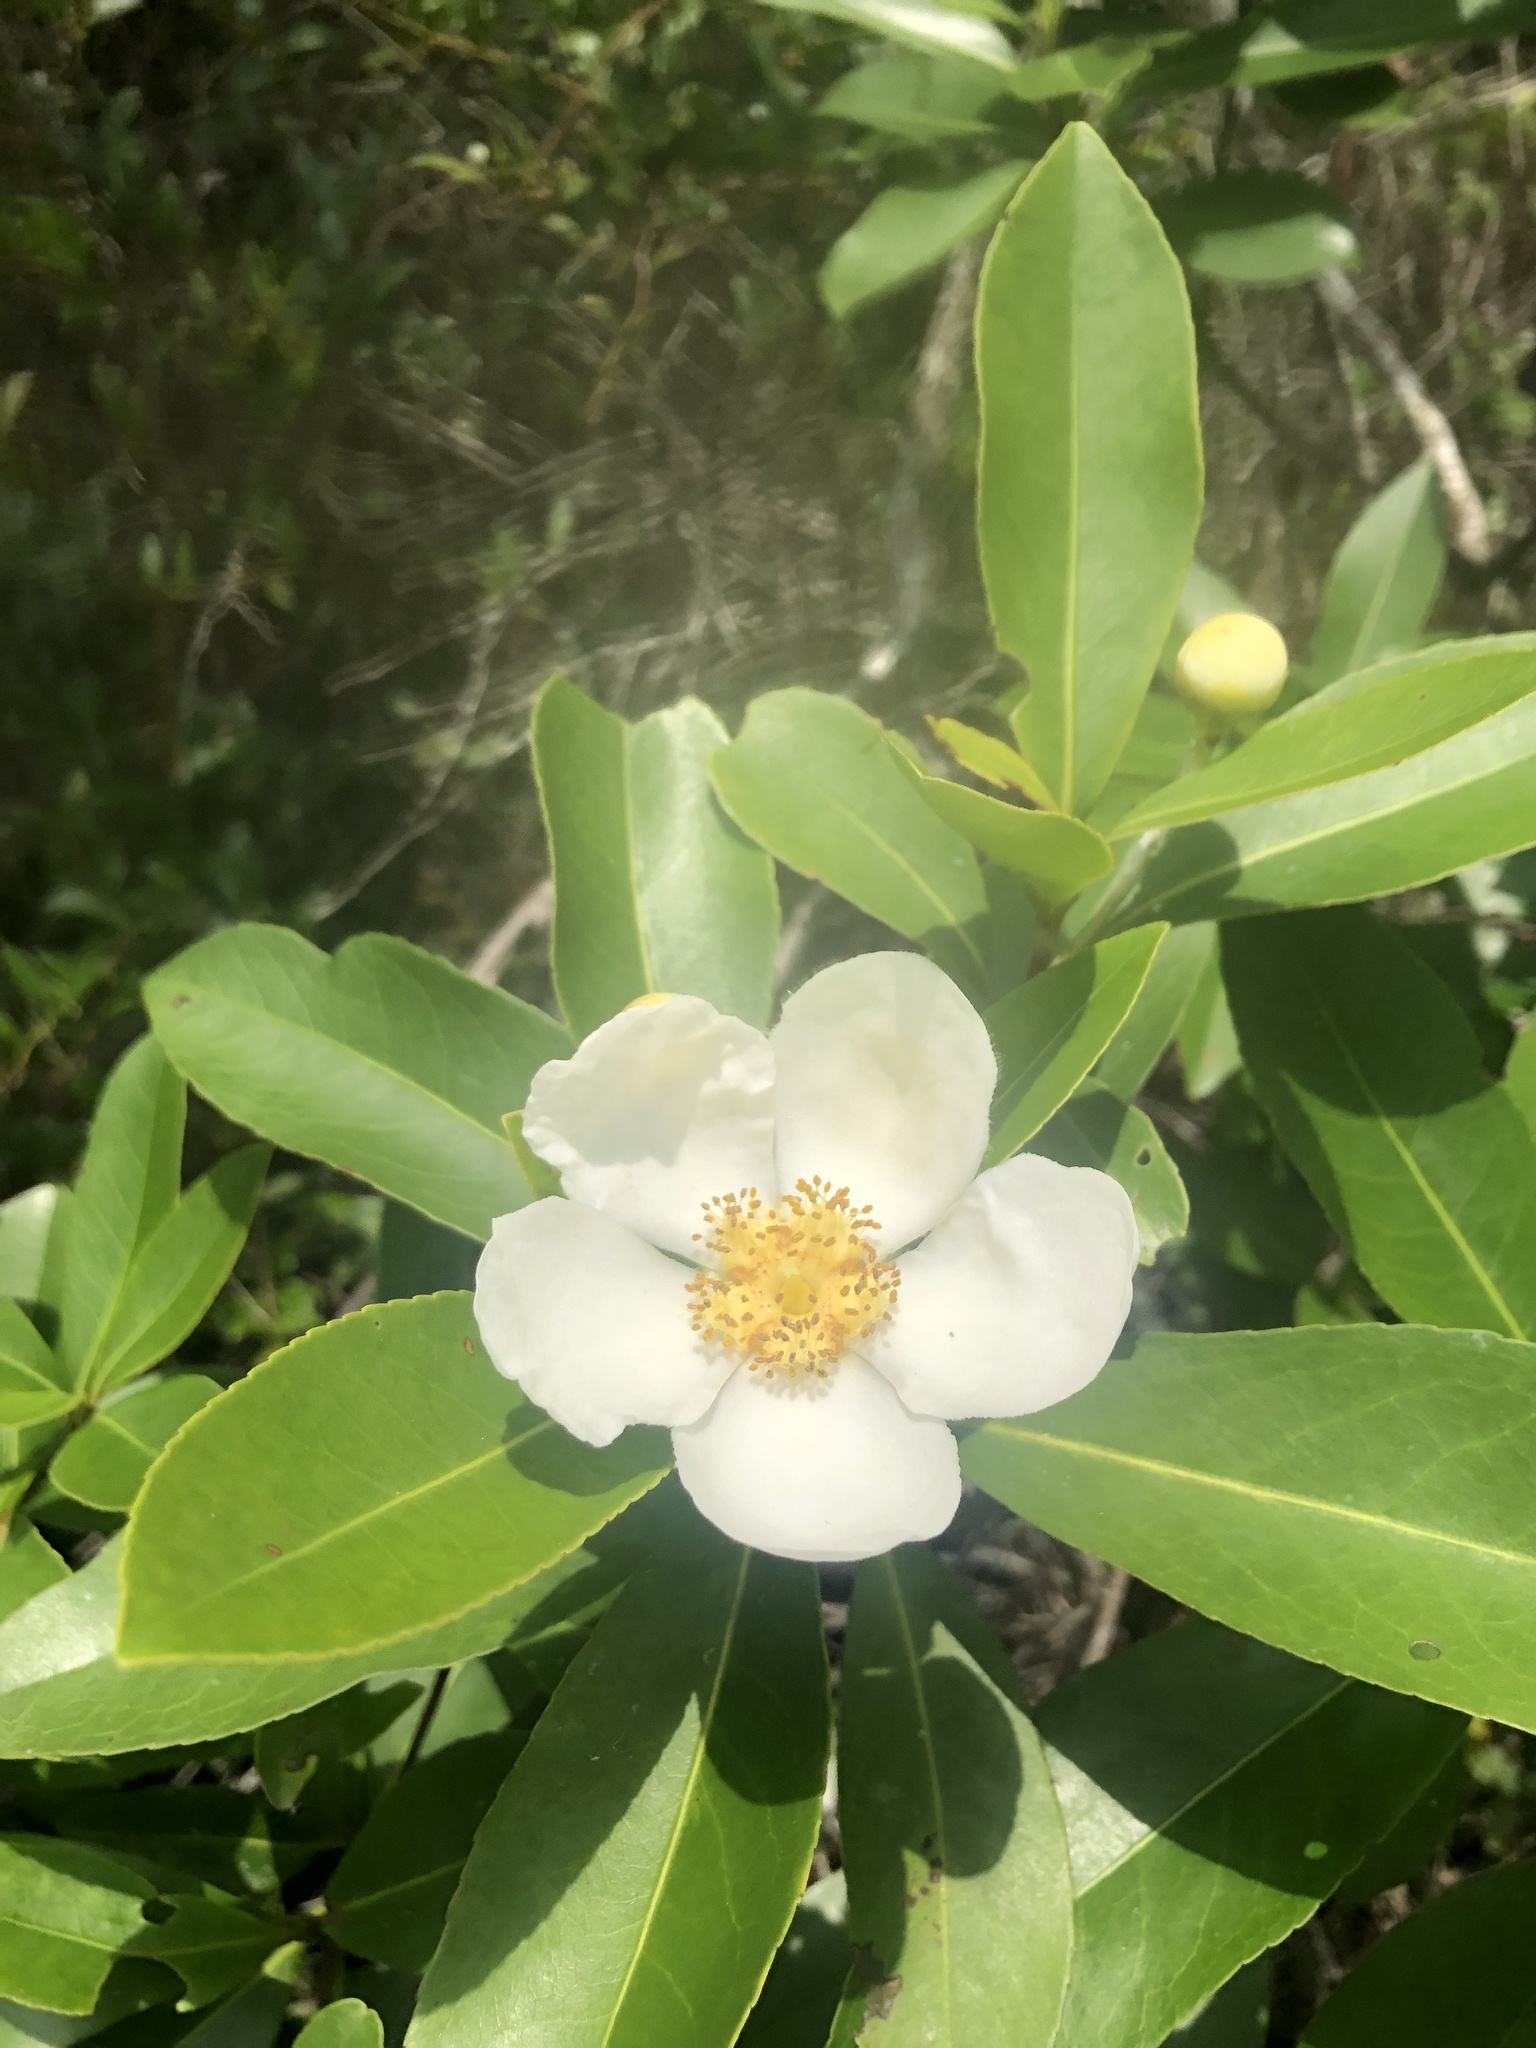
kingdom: Plantae
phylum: Tracheophyta
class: Magnoliopsida
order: Ericales
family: Theaceae
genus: Gordonia
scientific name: Gordonia lasianthus
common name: Loblolly bay
